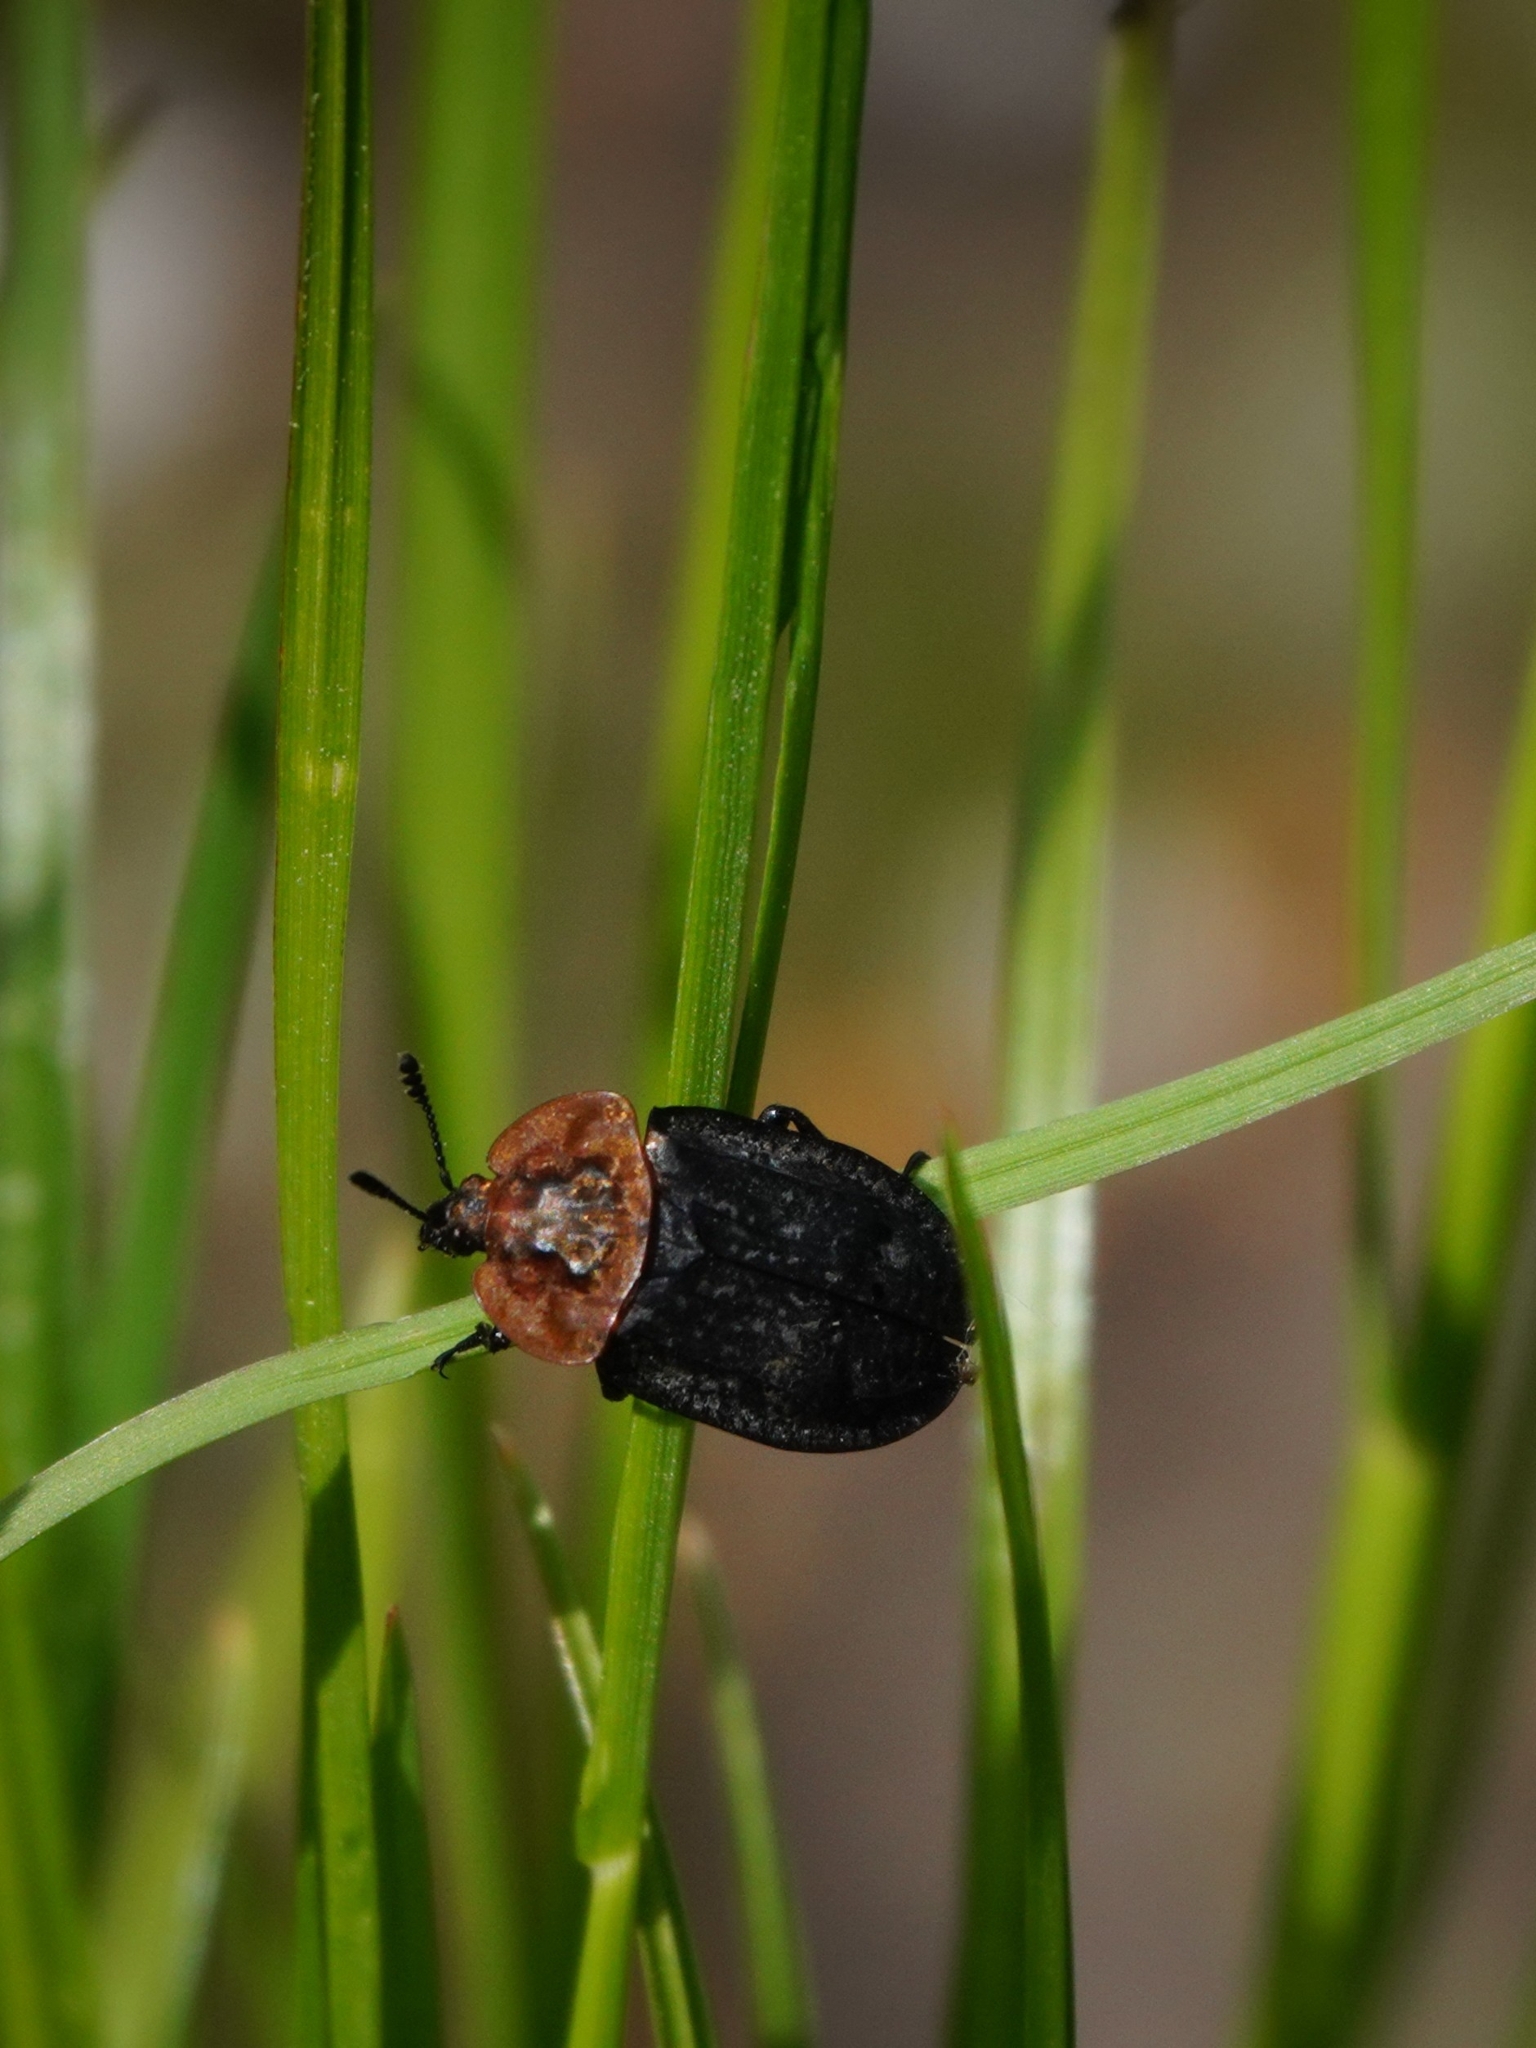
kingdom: Animalia
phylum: Arthropoda
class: Insecta
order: Coleoptera
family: Staphylinidae
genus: Oiceoptoma
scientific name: Oiceoptoma thoracicum
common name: Red-breasted carrion beetle
